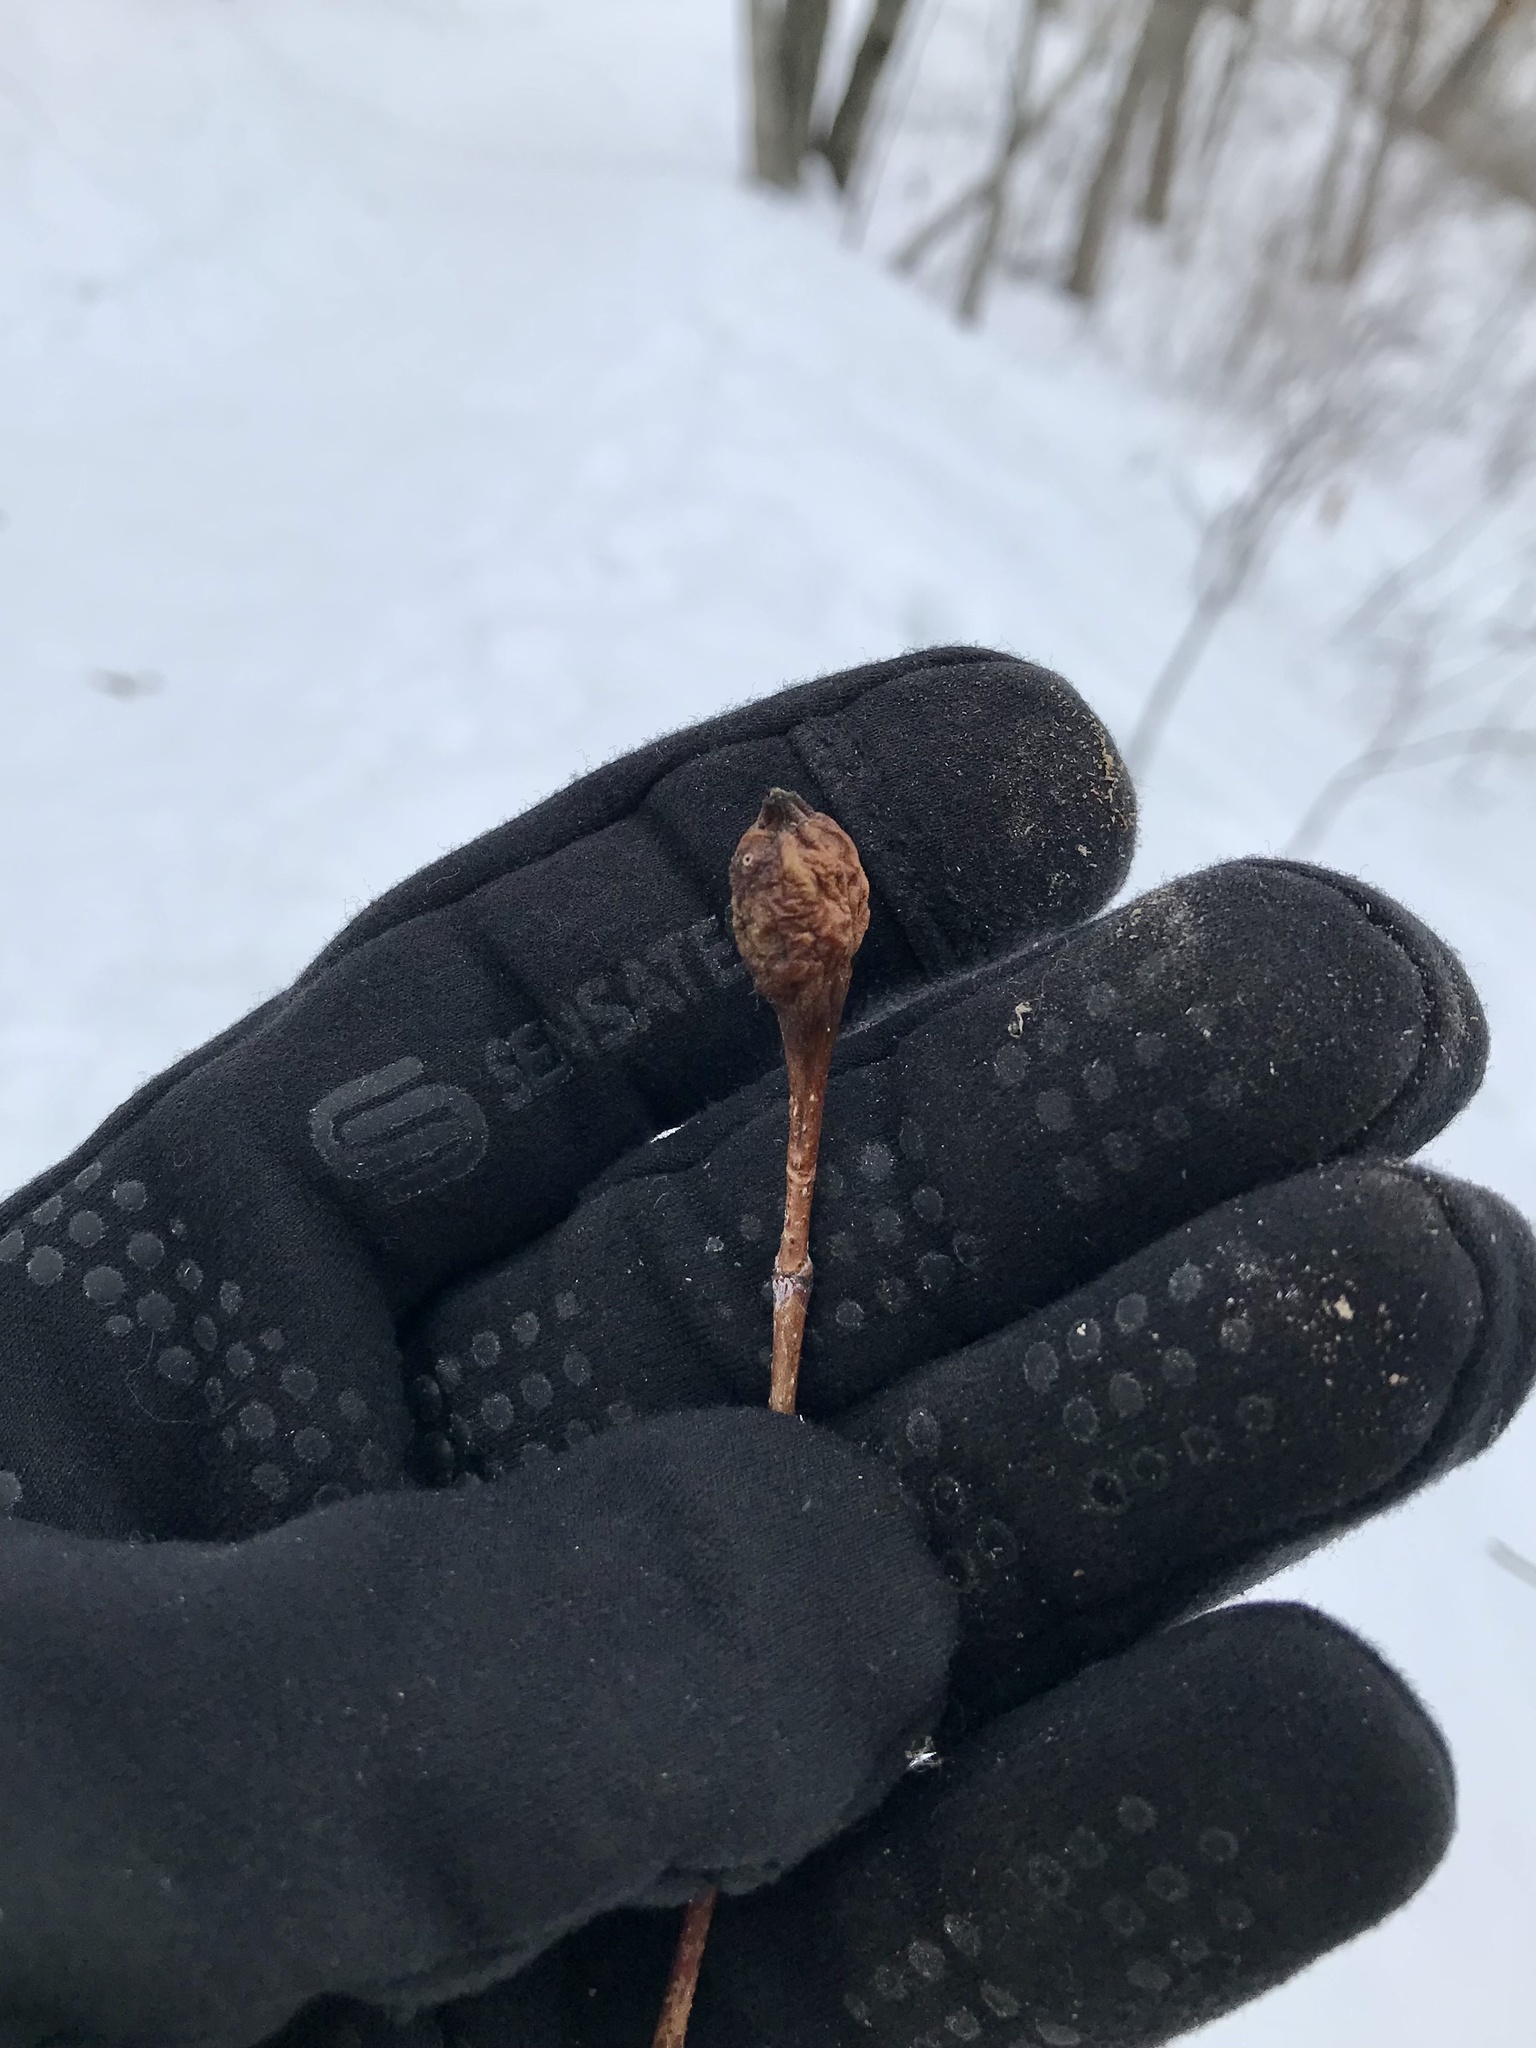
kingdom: Animalia
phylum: Arthropoda
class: Insecta
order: Diptera
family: Cecidomyiidae
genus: Resseliella
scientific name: Resseliella clavula
